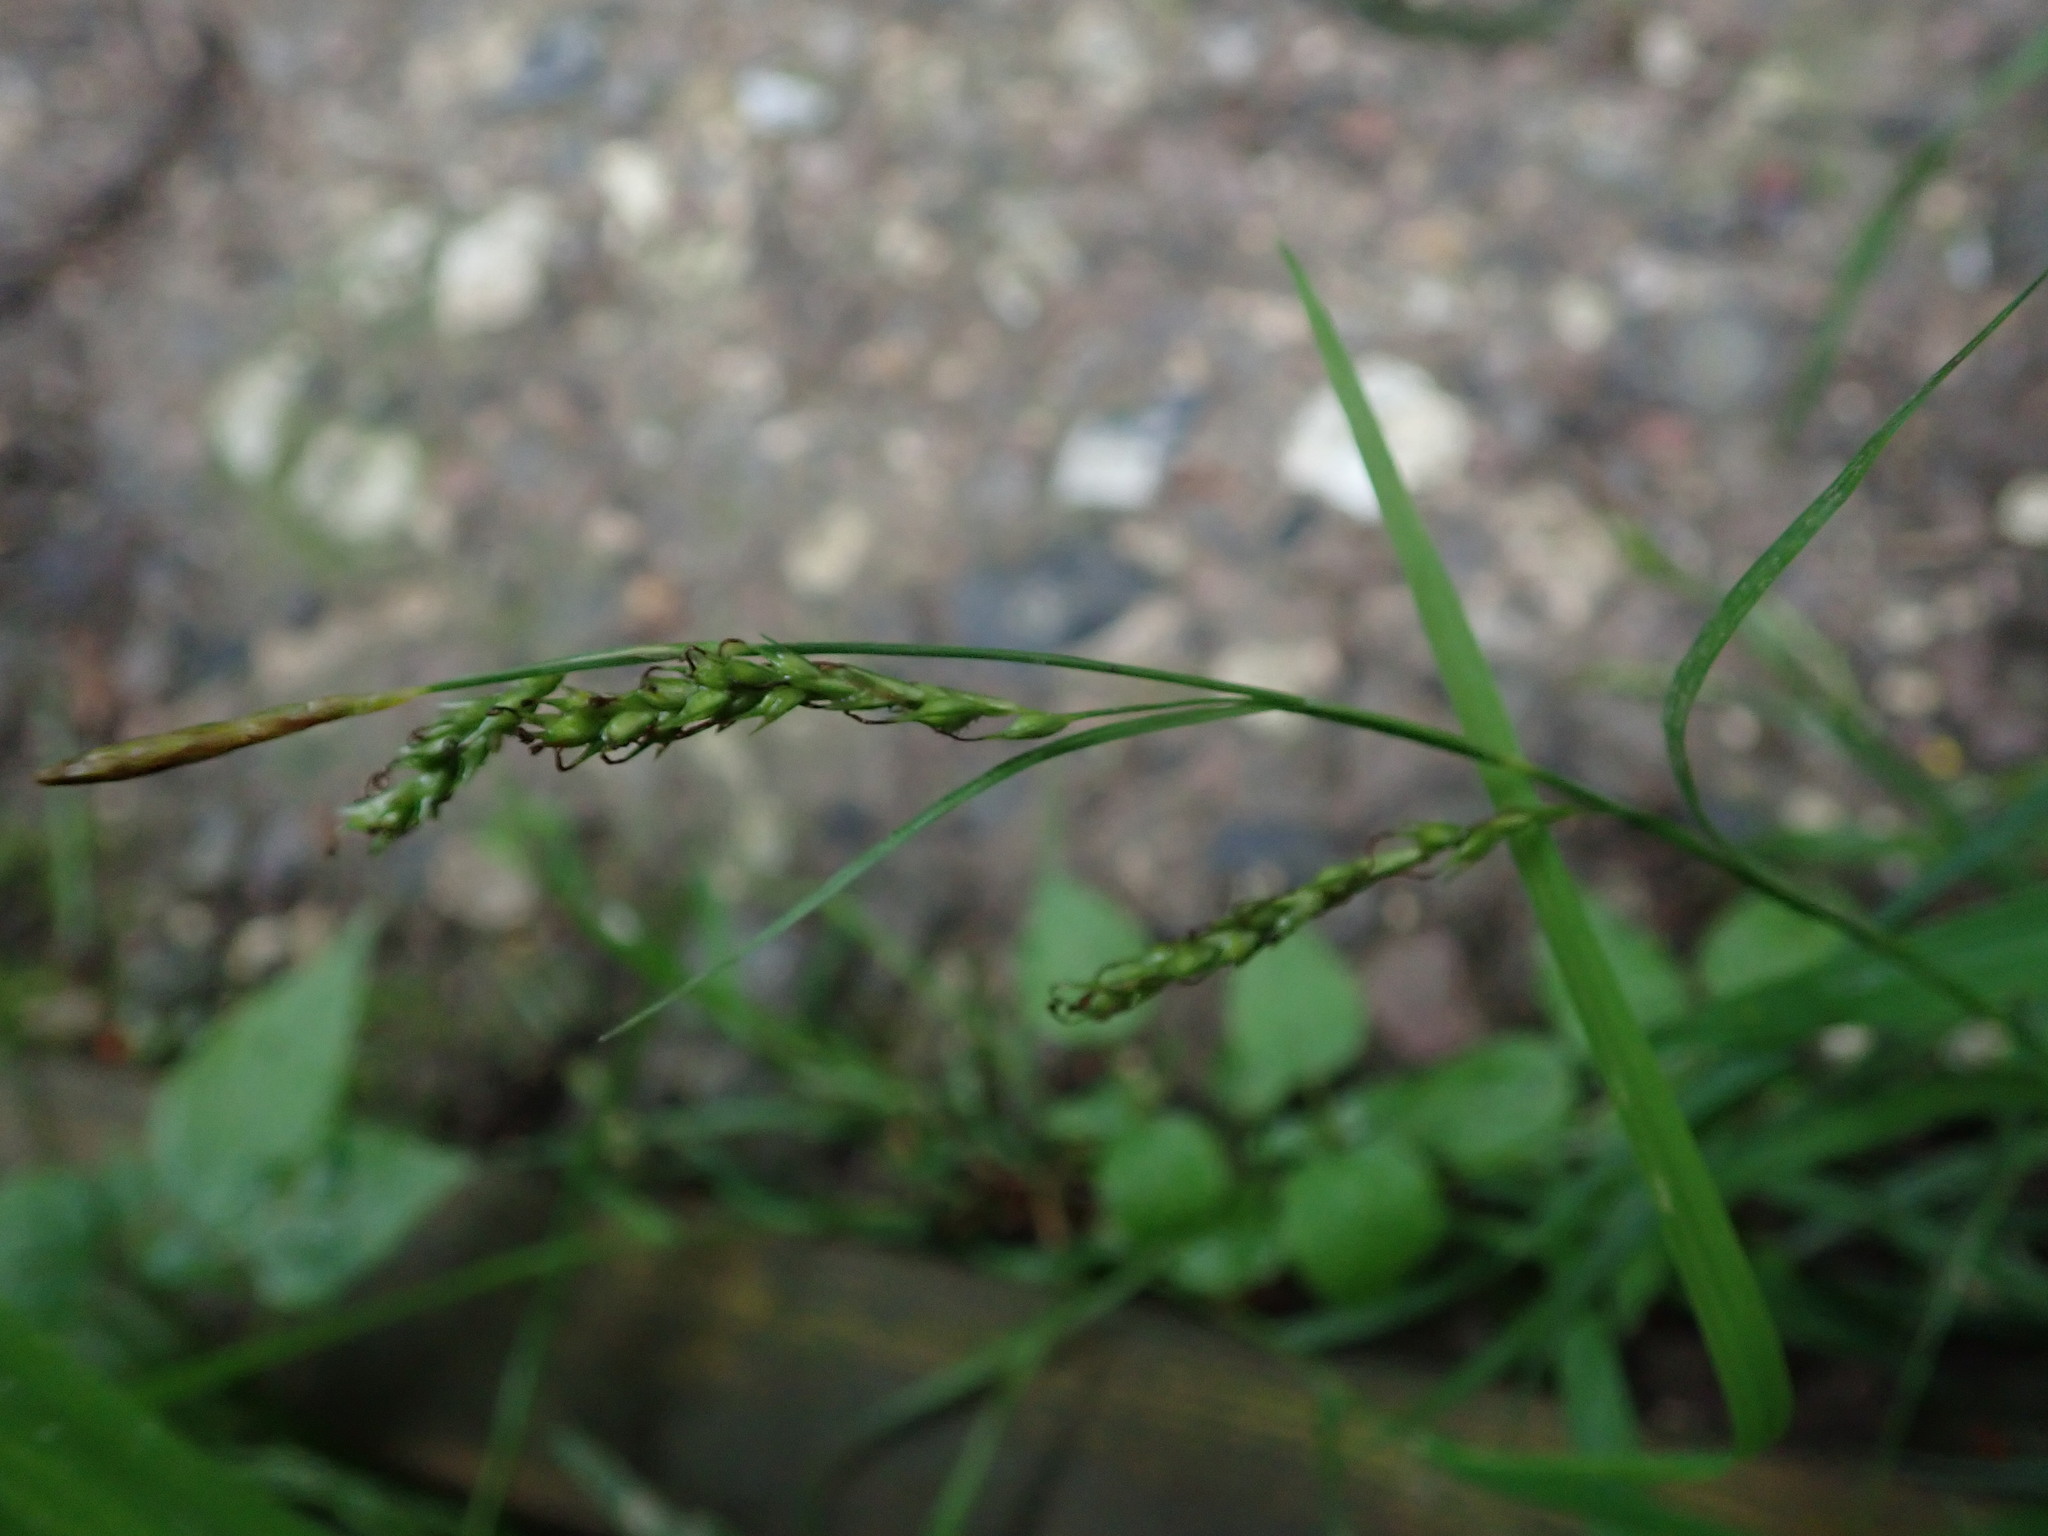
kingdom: Plantae
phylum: Tracheophyta
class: Liliopsida
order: Poales
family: Cyperaceae
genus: Carex
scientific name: Carex sylvatica
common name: Wood-sedge
